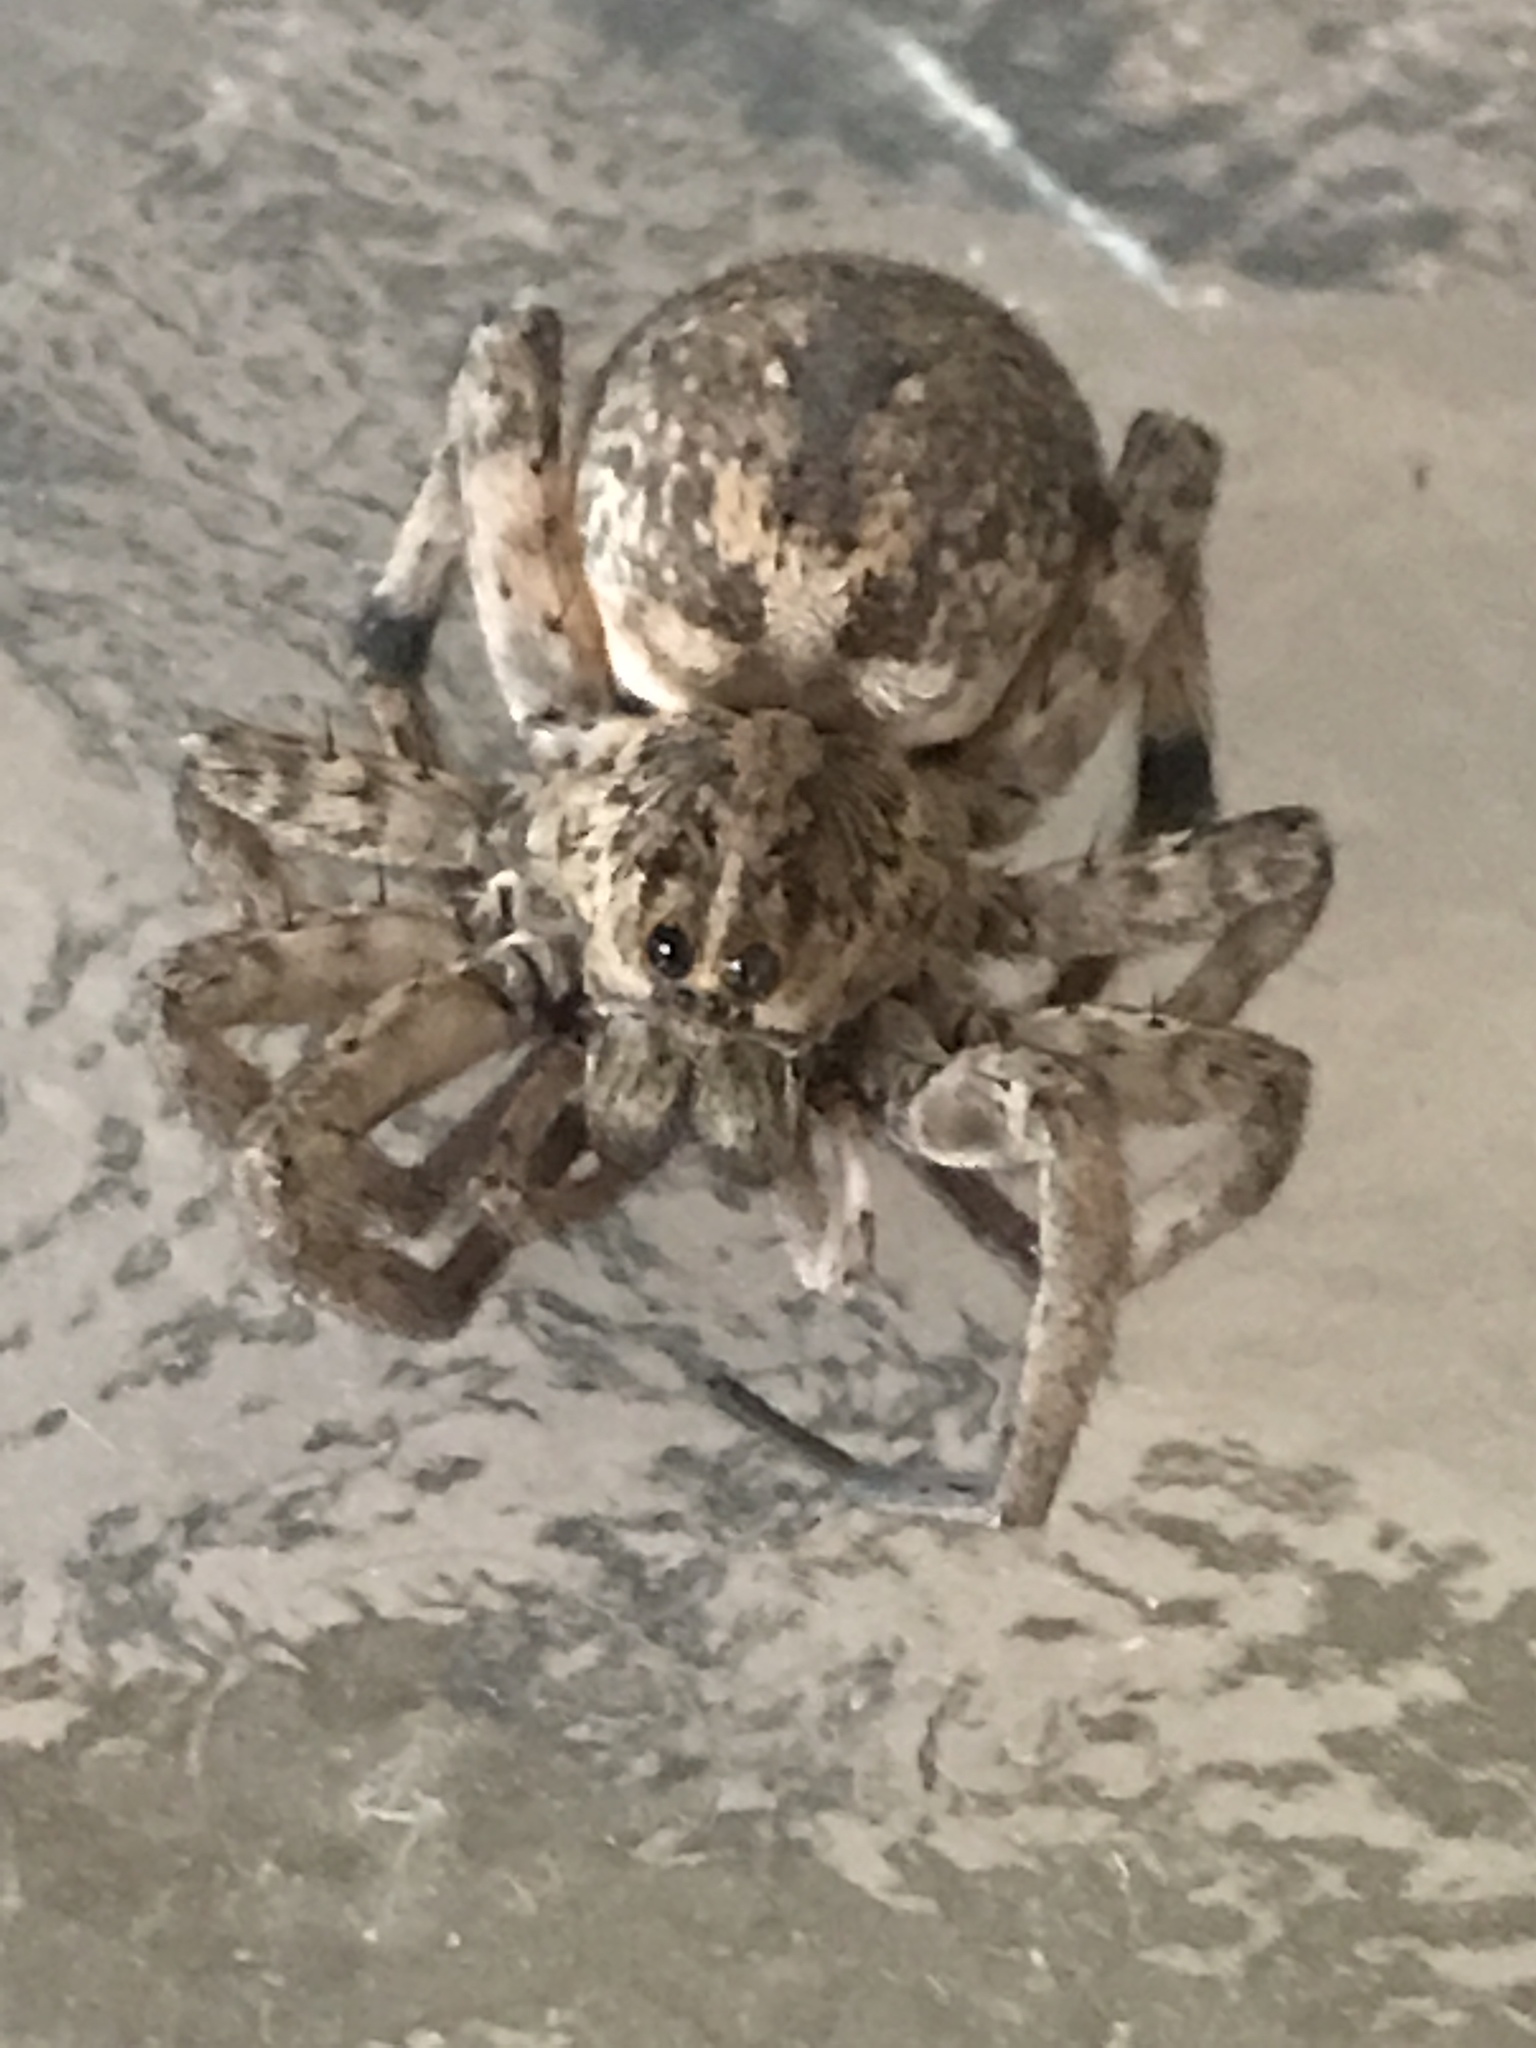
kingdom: Animalia
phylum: Arthropoda
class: Arachnida
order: Araneae
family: Lycosidae
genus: Hogna
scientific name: Hogna antelucana
